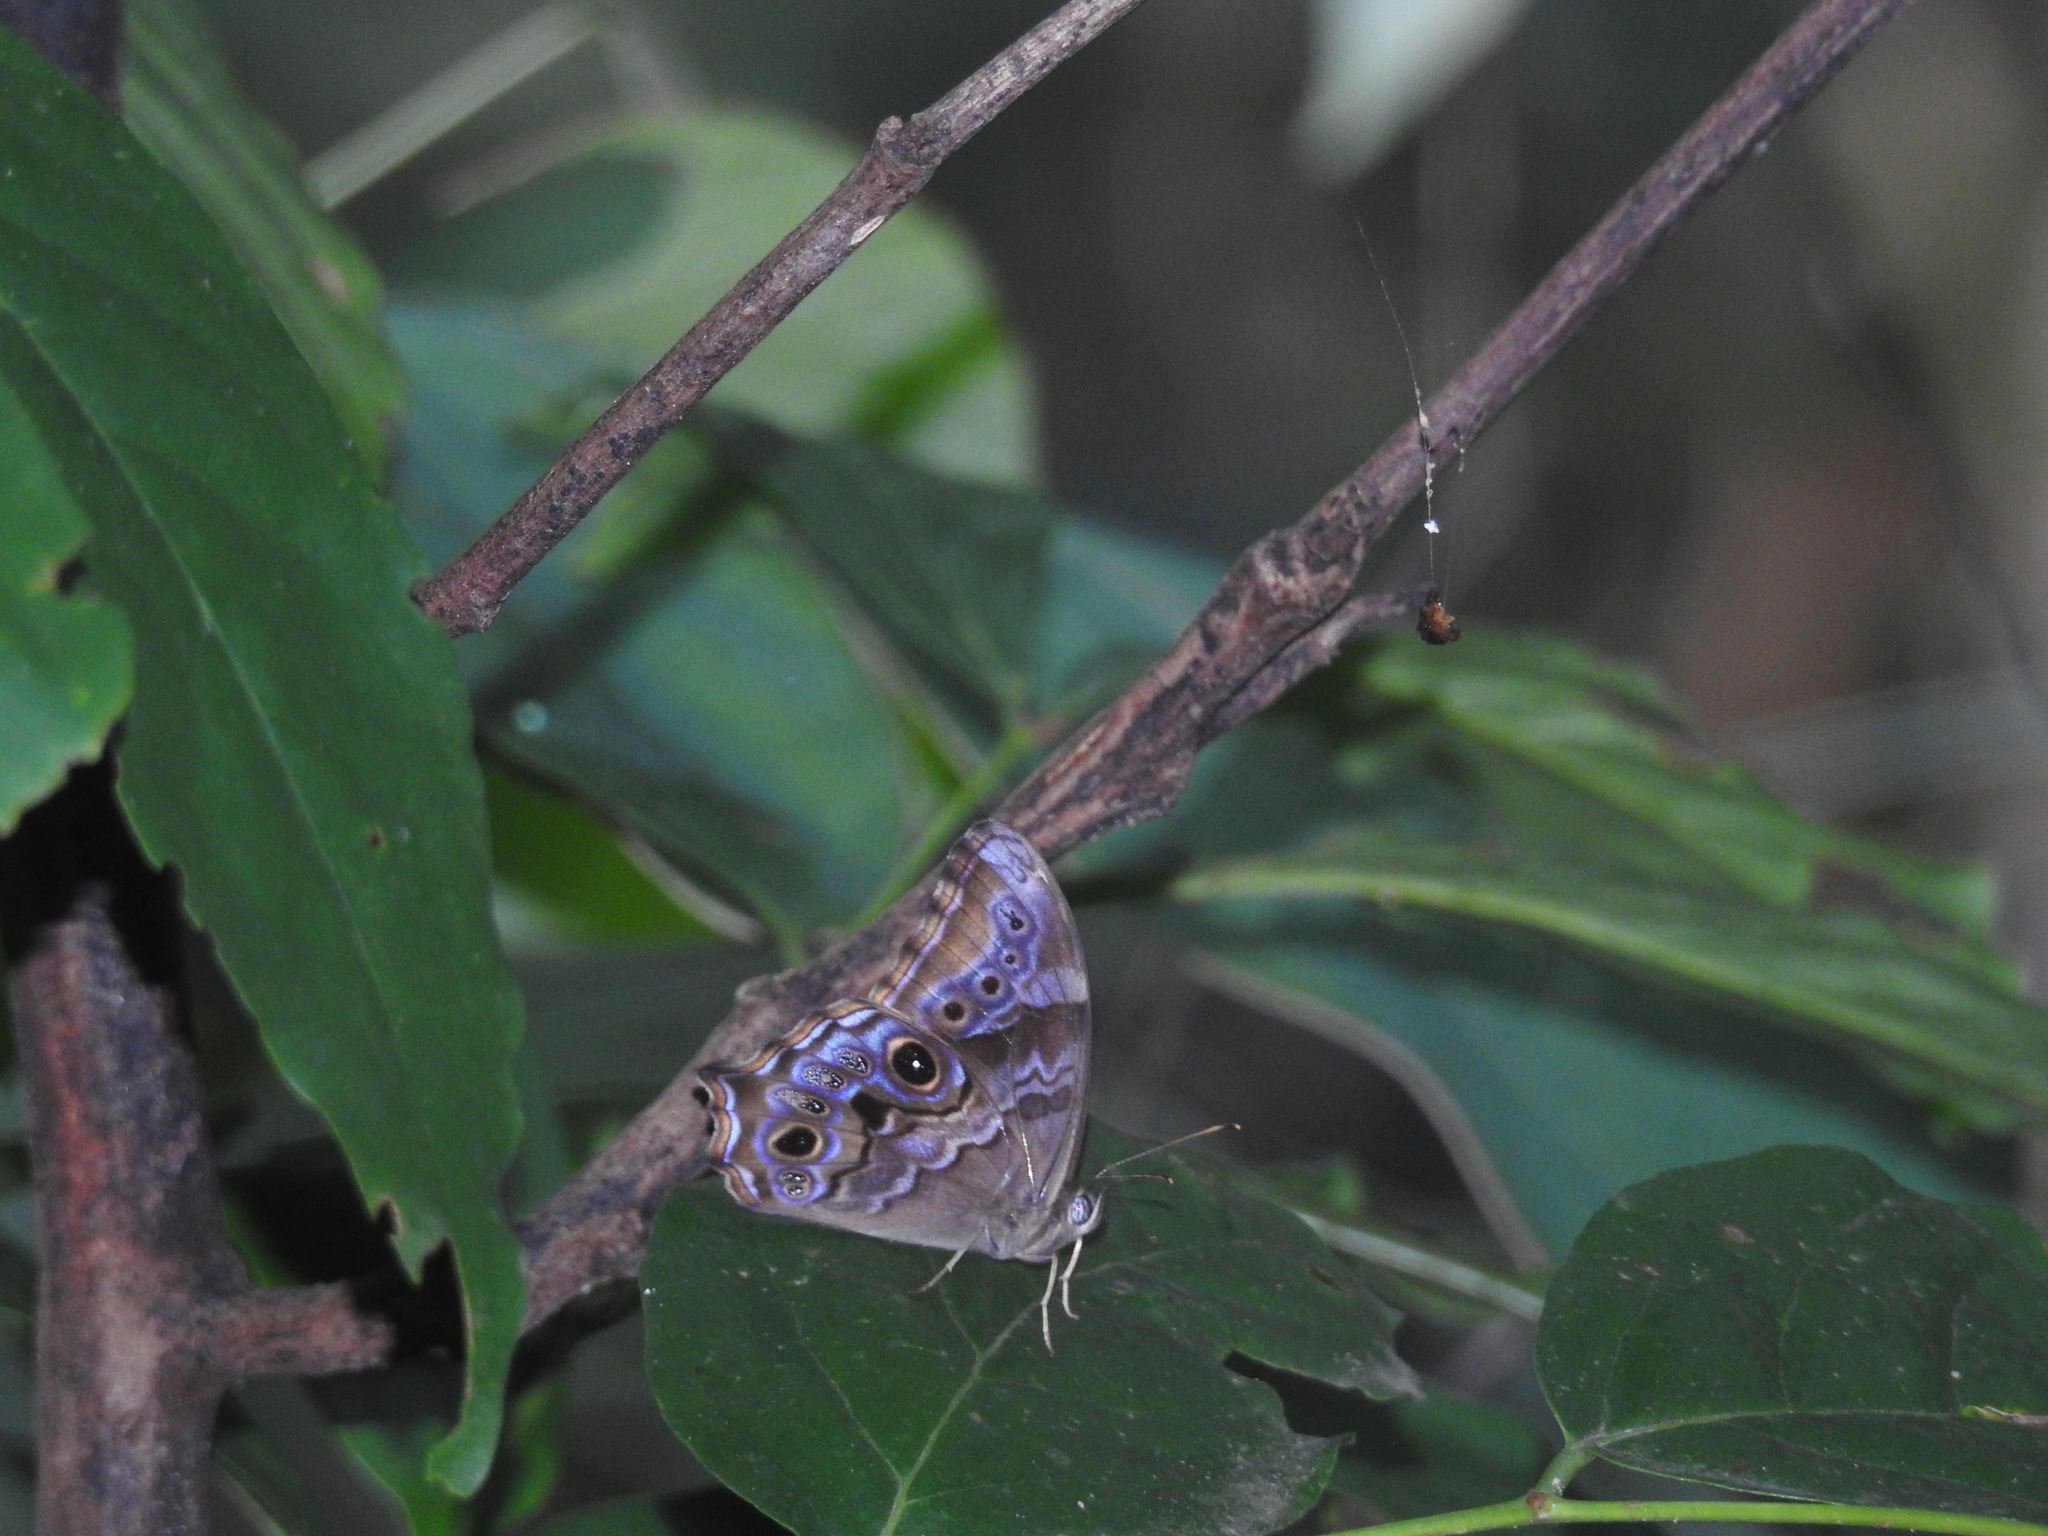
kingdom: Animalia
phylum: Arthropoda
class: Insecta
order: Lepidoptera
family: Nymphalidae
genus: Lethe
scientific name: Lethe drypetis
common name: Tamil treebrown
